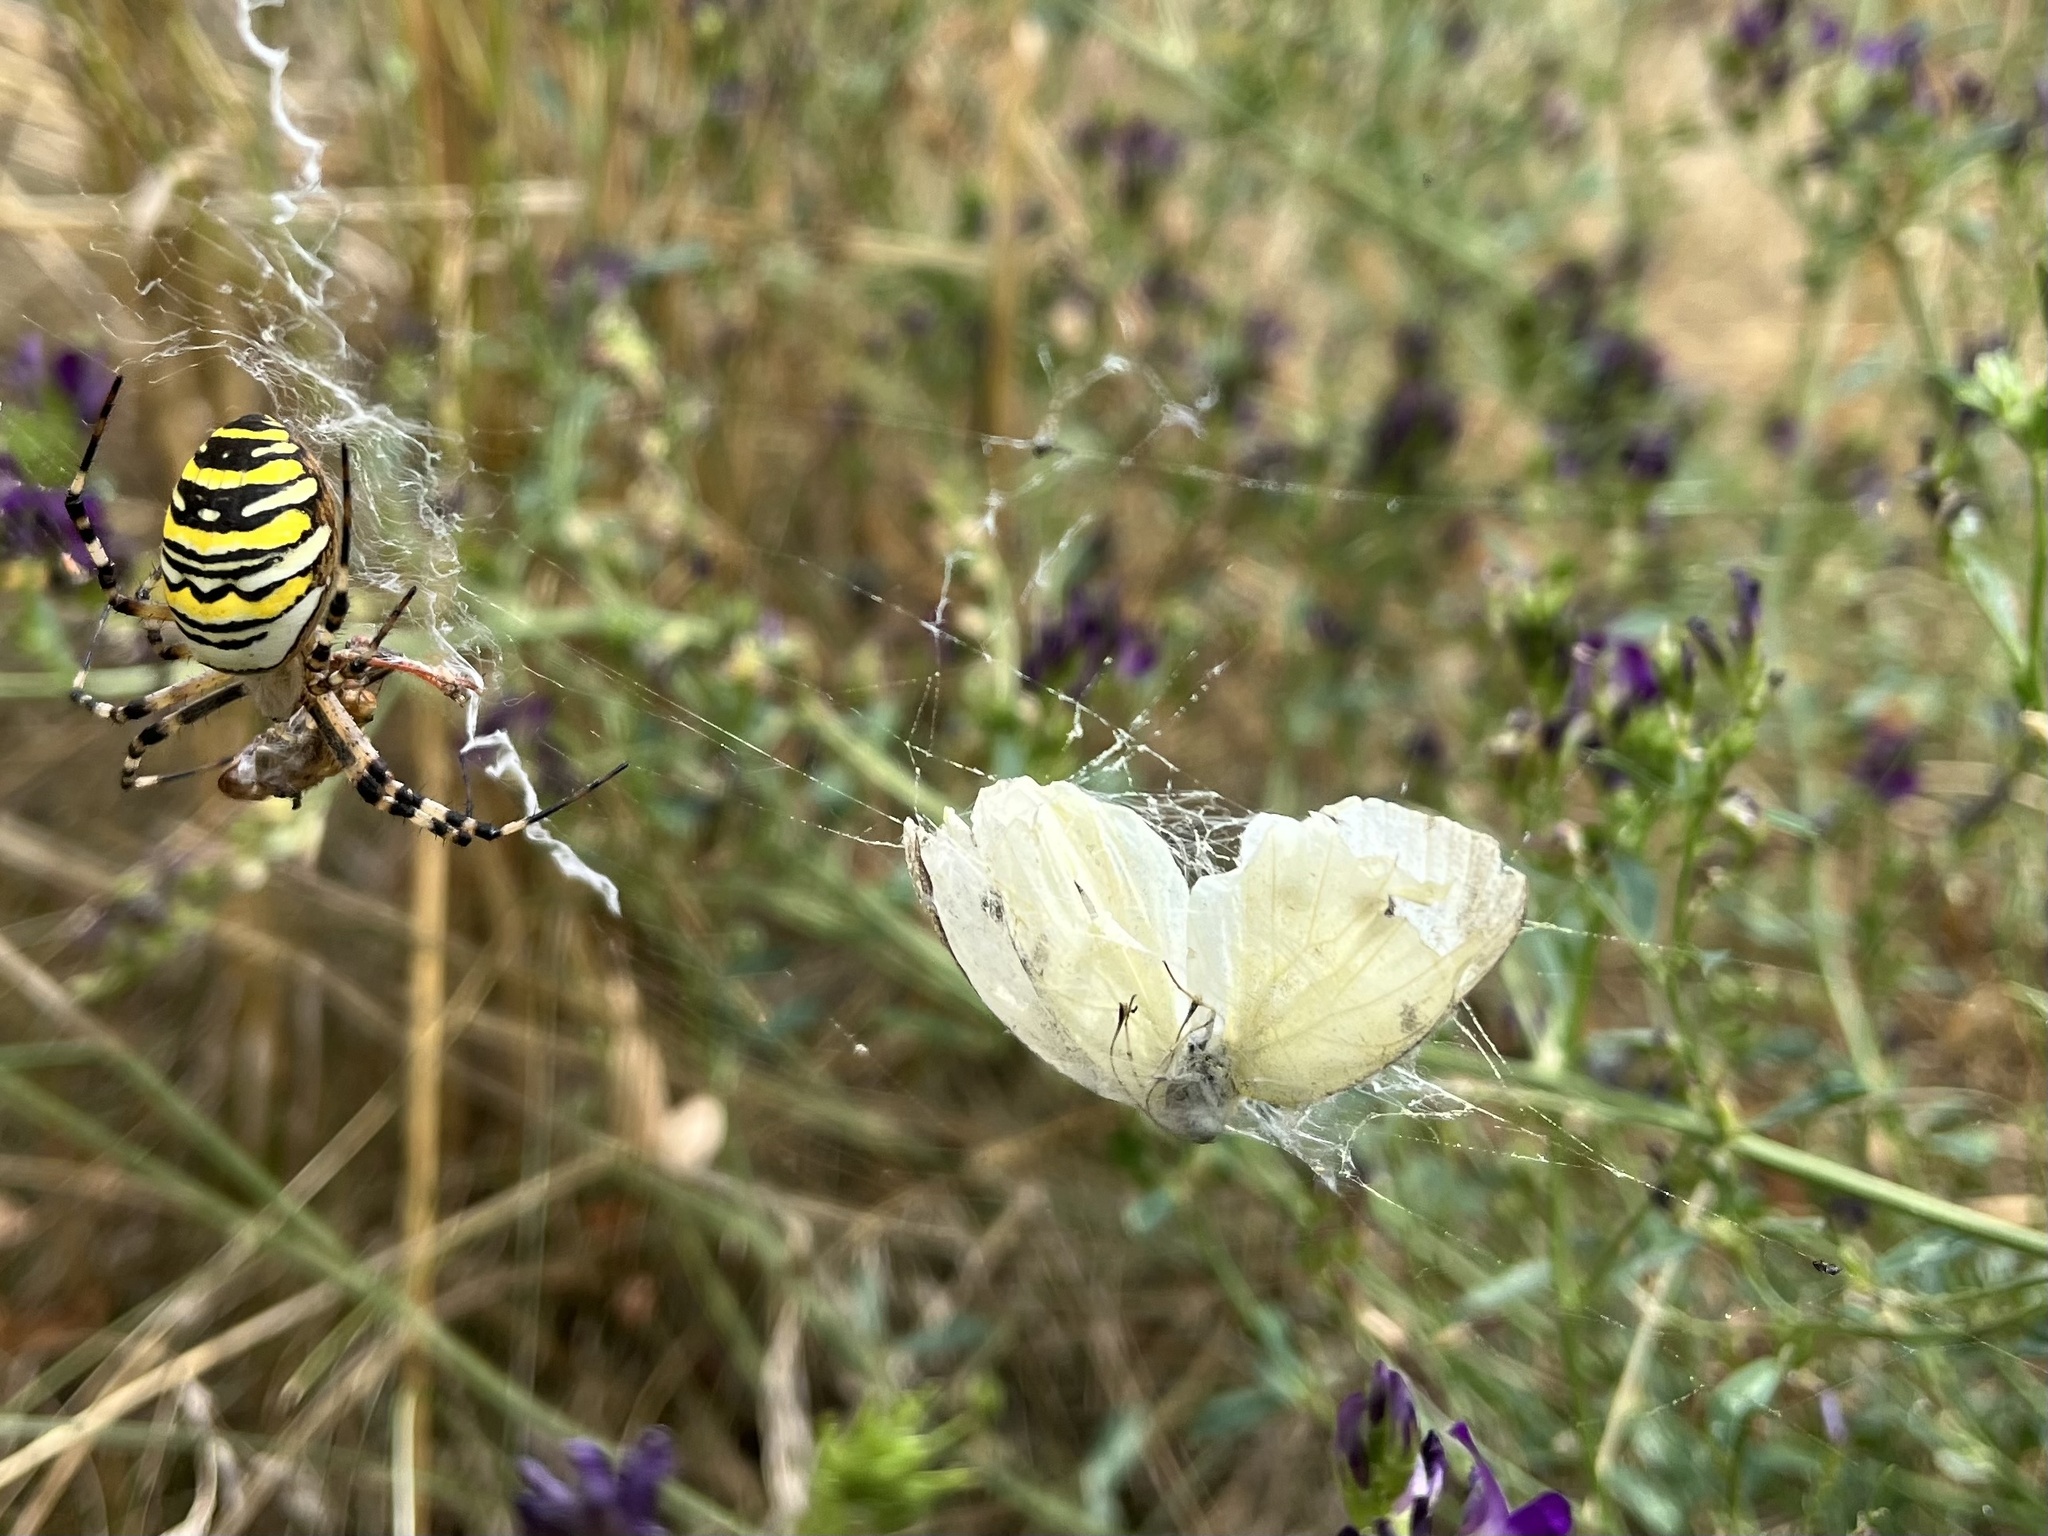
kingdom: Animalia
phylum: Arthropoda
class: Insecta
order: Lepidoptera
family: Pieridae
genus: Pieris
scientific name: Pieris rapae
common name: Small white
